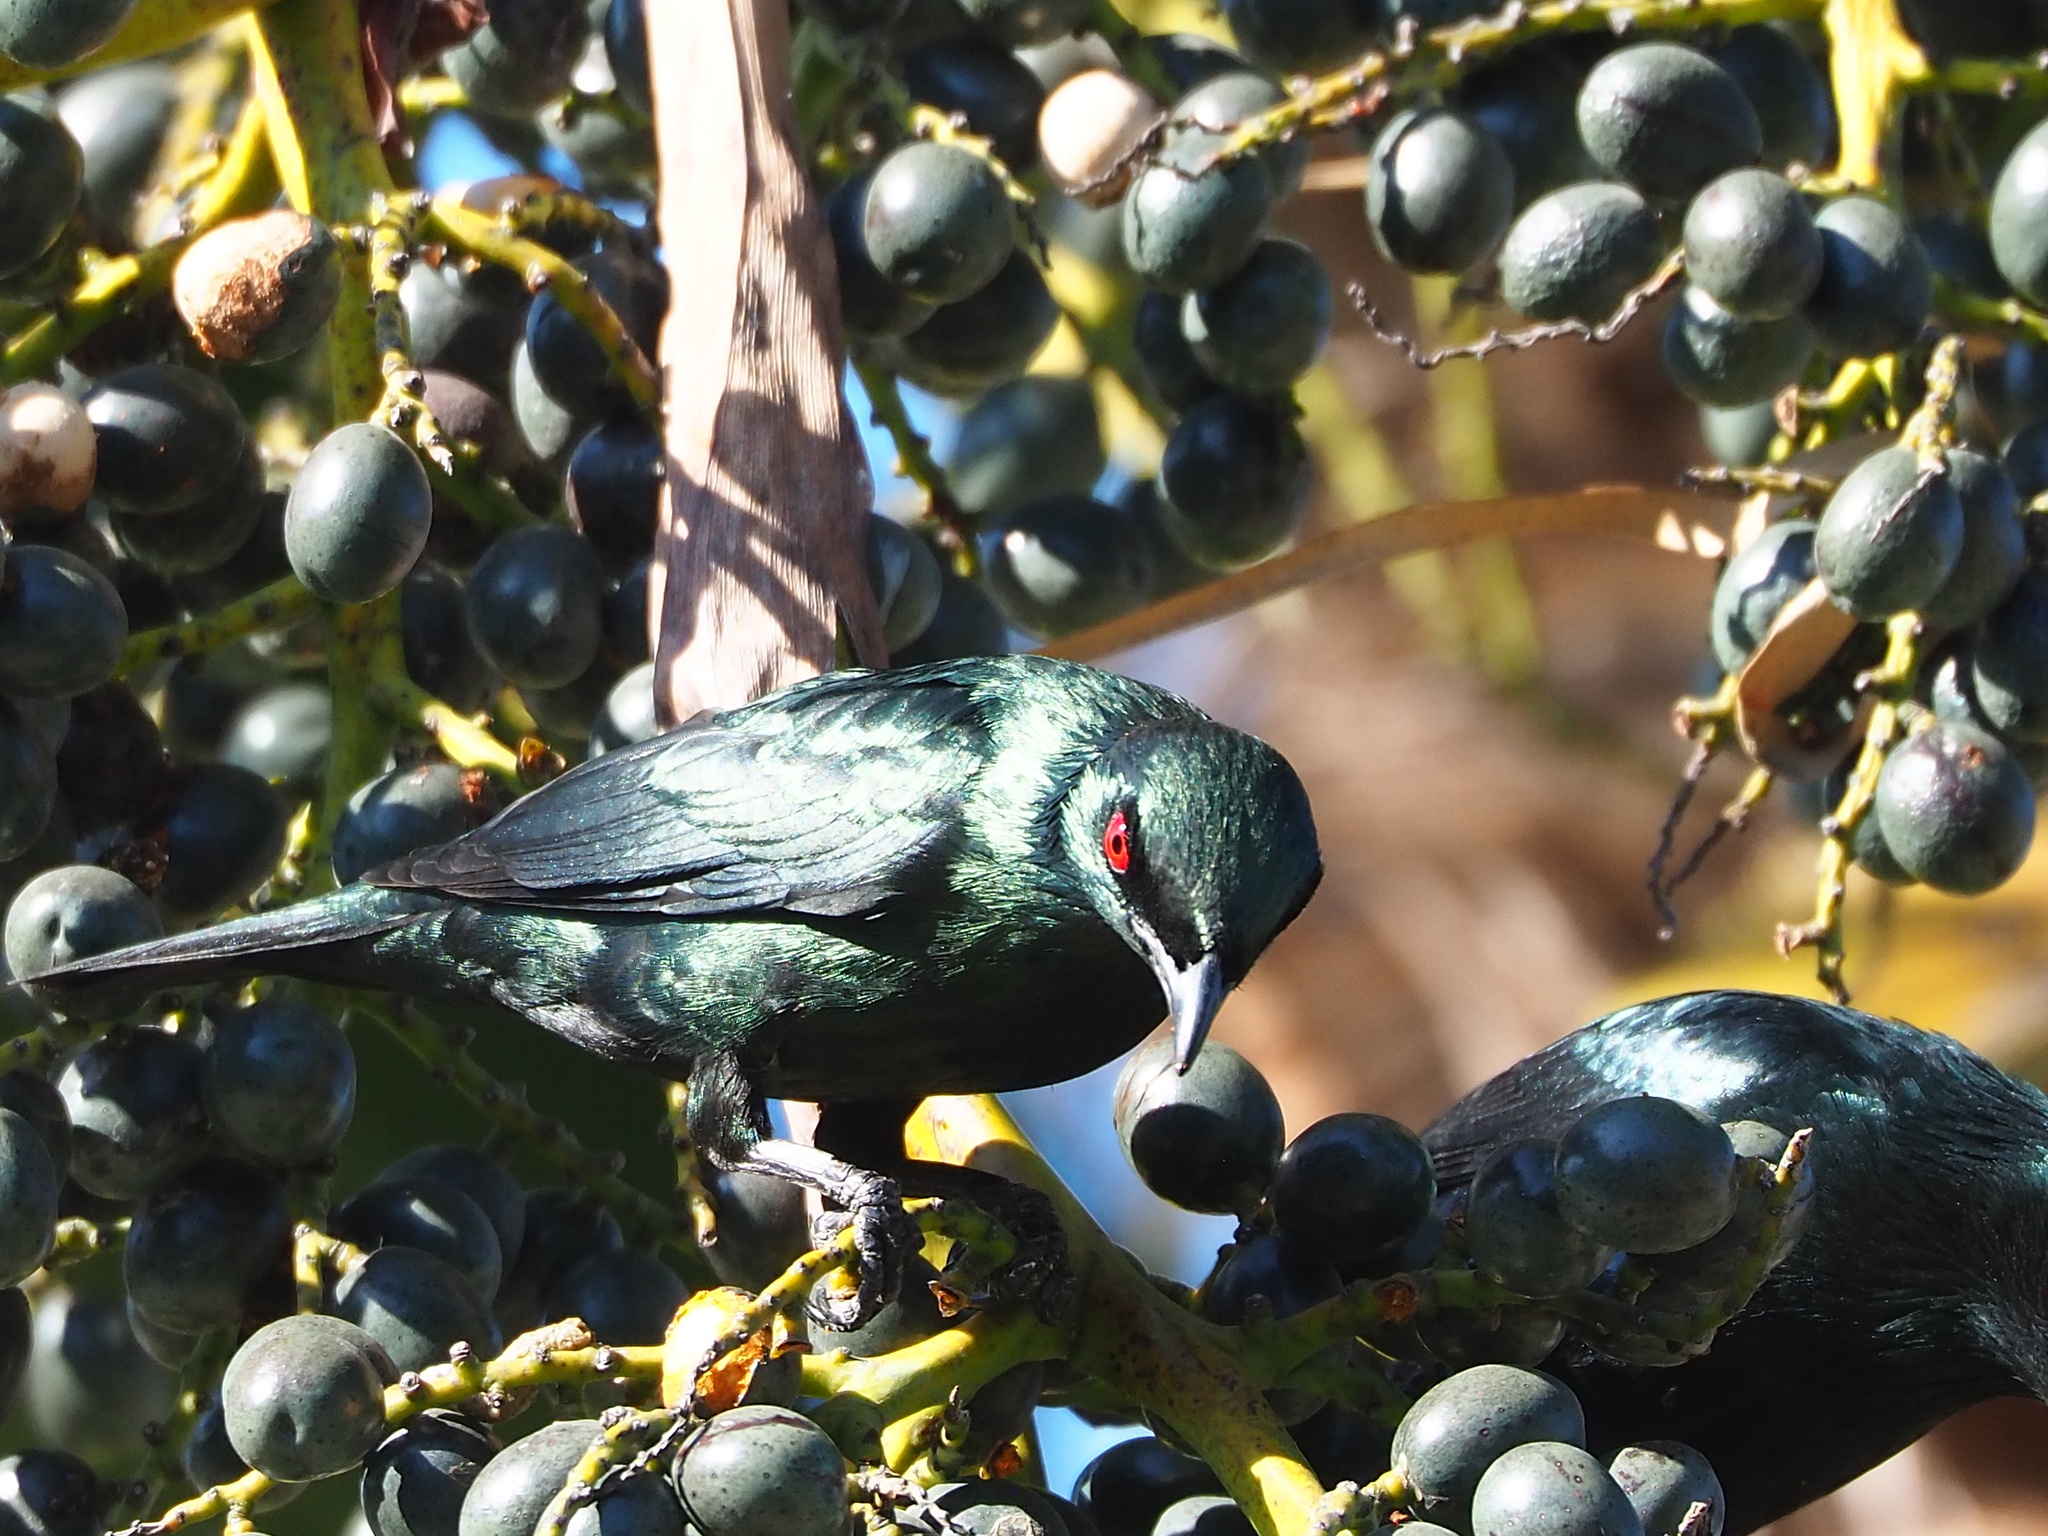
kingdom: Animalia
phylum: Chordata
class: Aves
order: Passeriformes
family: Sturnidae
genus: Aplonis
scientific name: Aplonis panayensis
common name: Asian glossy starling
